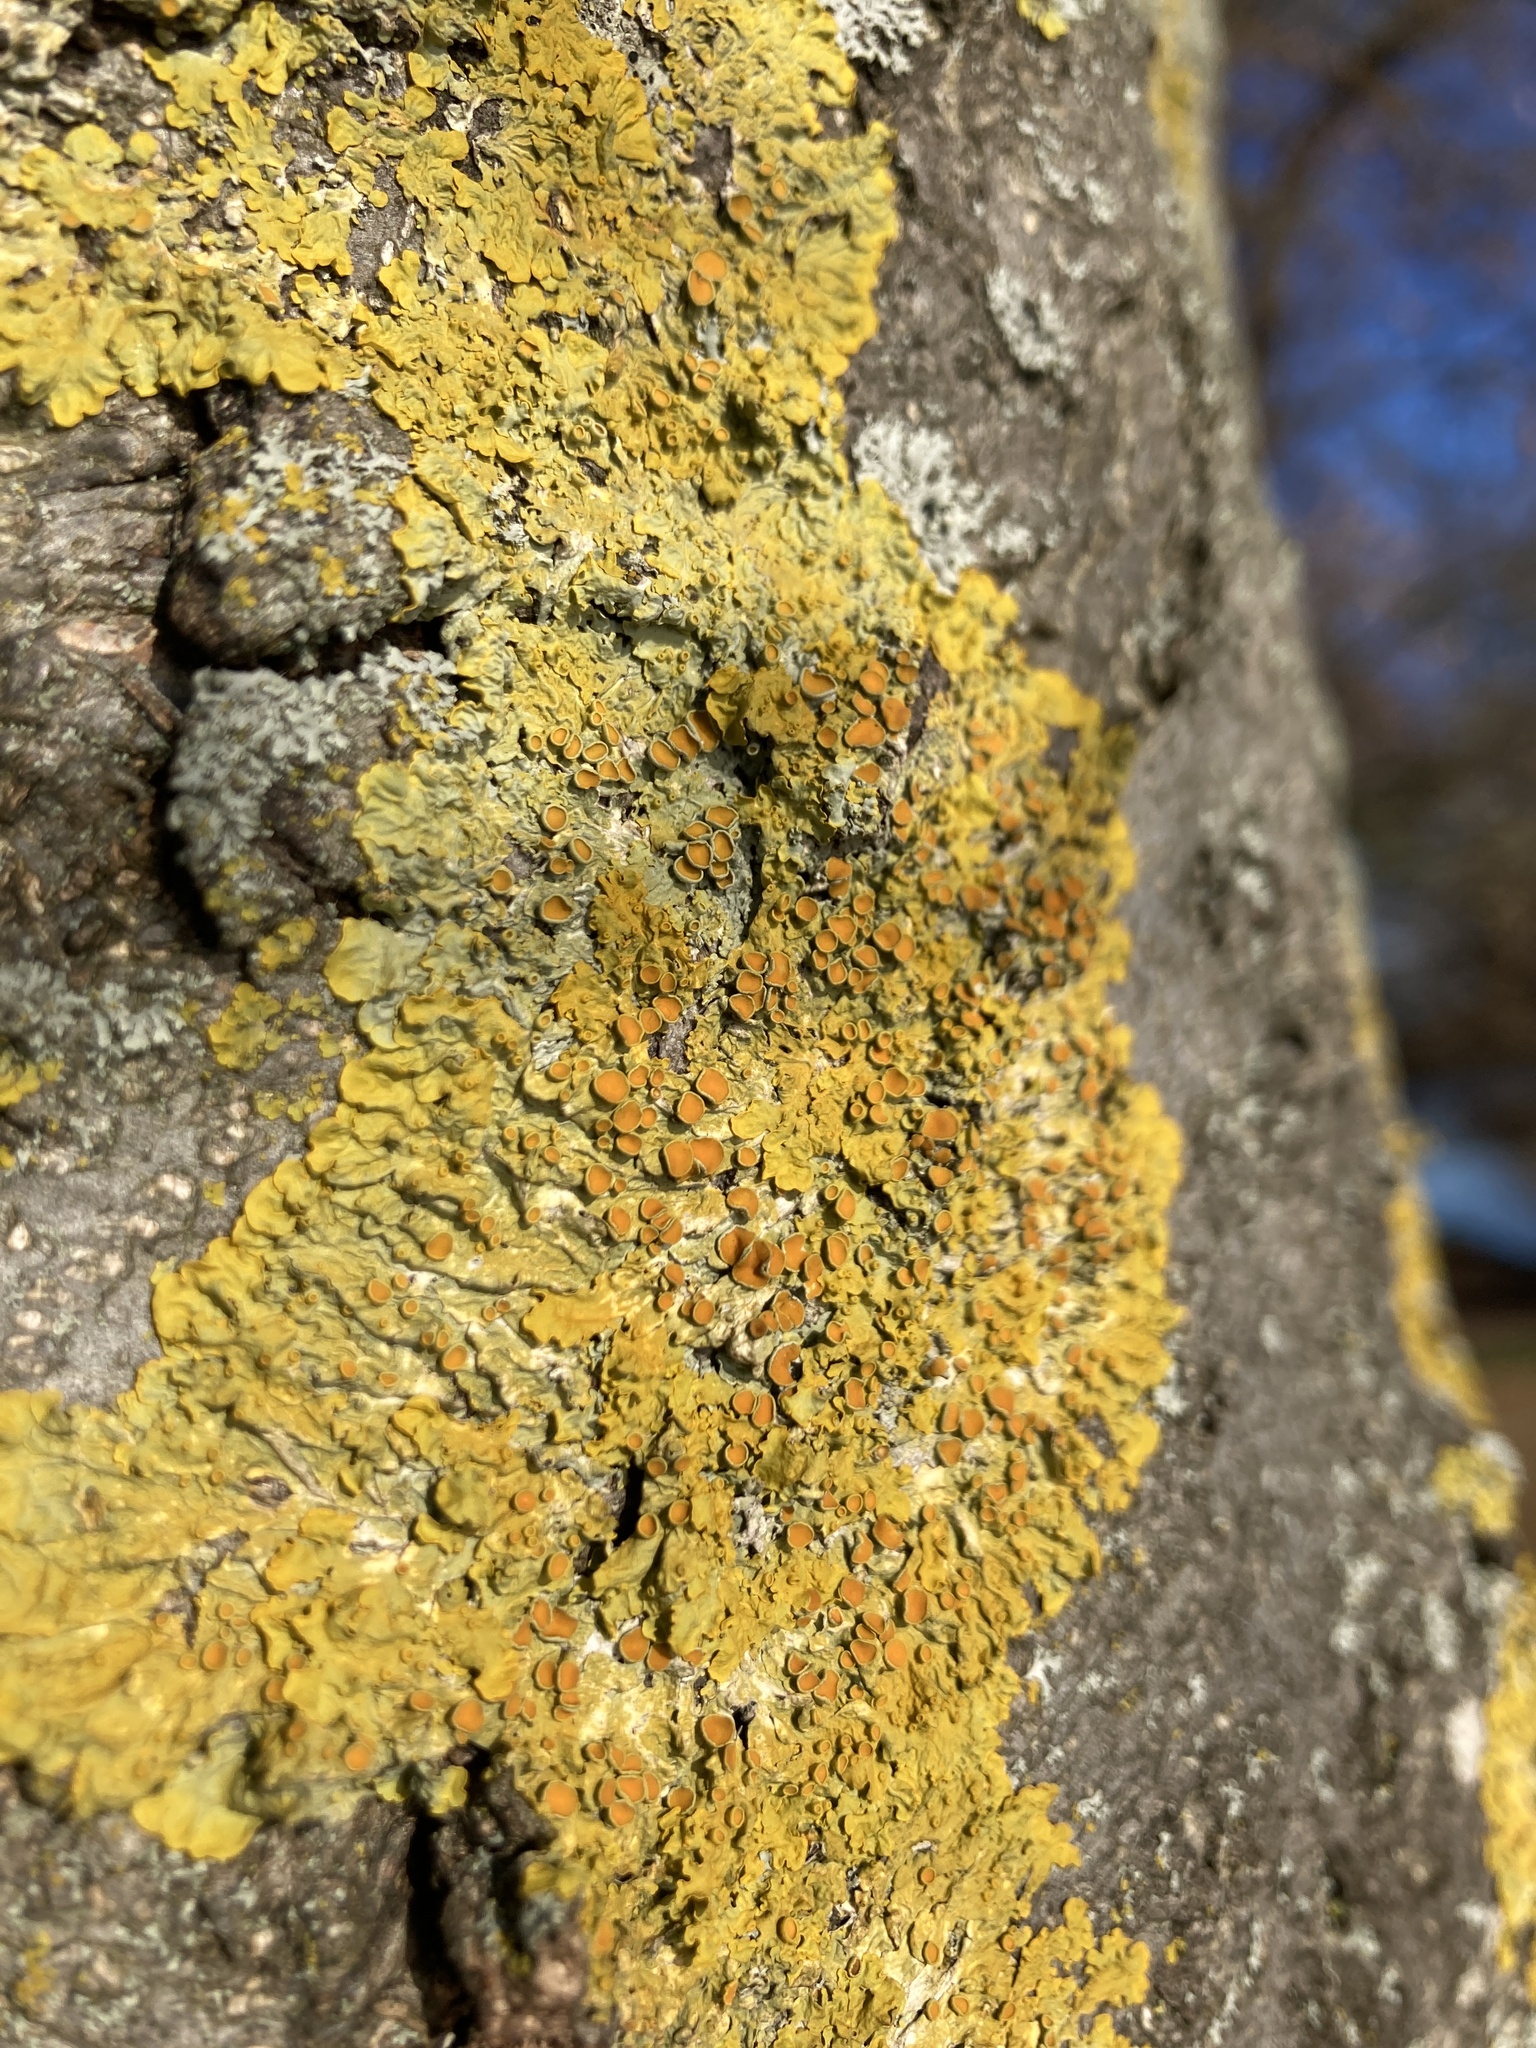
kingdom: Fungi
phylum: Ascomycota
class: Lecanoromycetes
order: Teloschistales
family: Teloschistaceae
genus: Xanthoria
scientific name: Xanthoria parietina
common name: Common orange lichen
